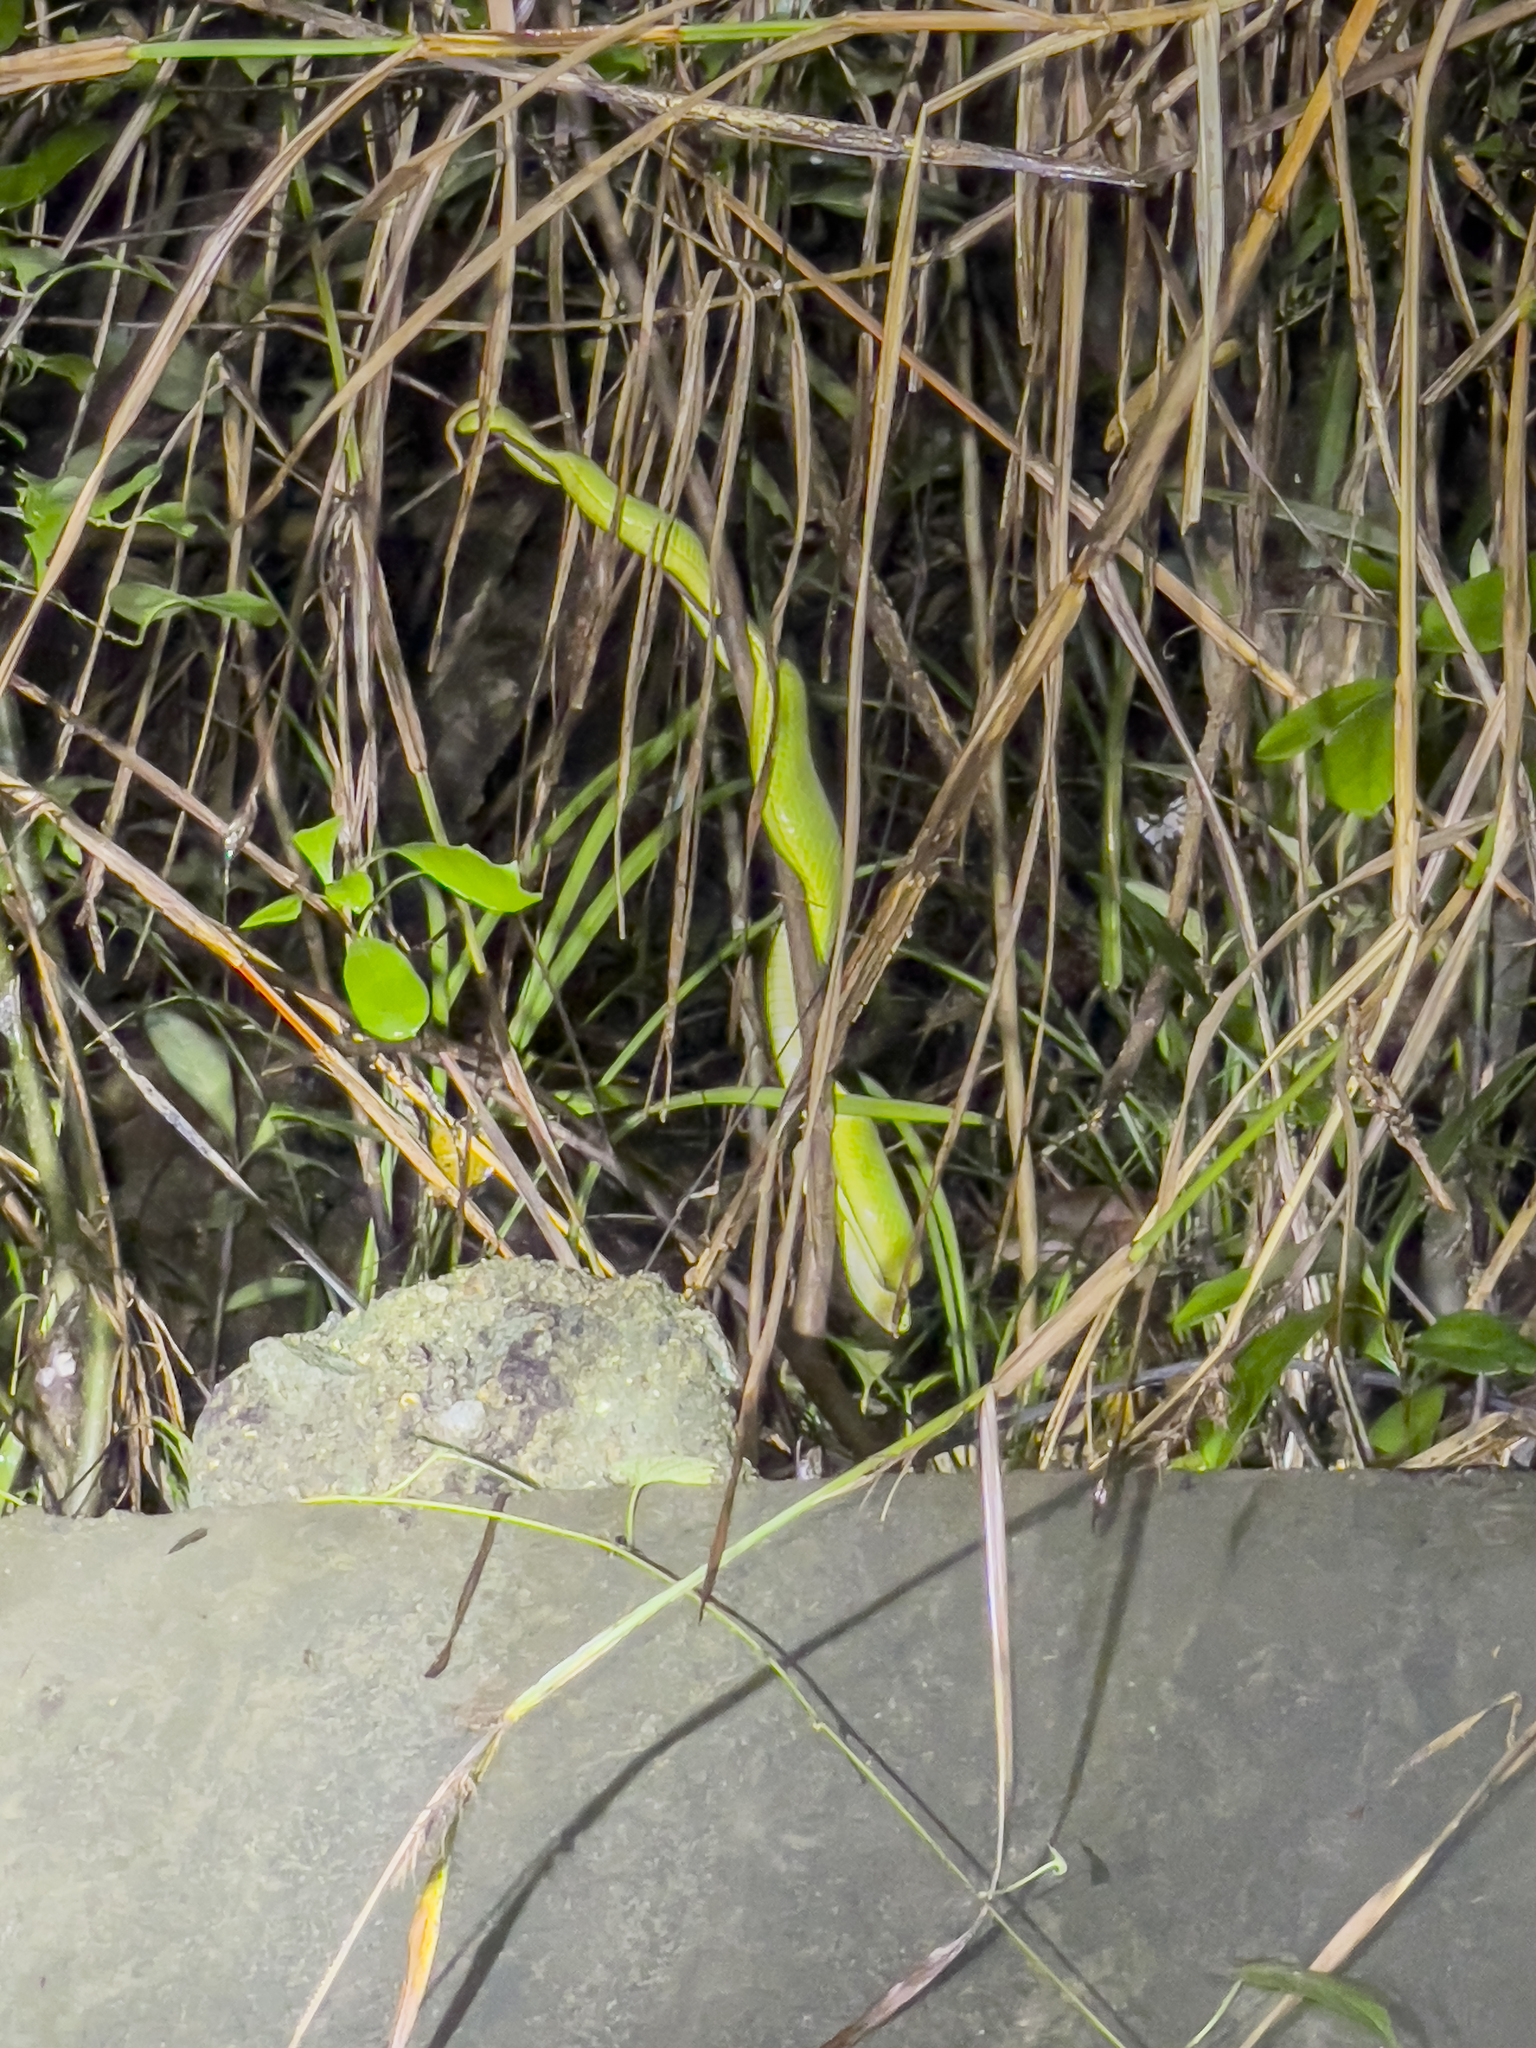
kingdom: Animalia
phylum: Chordata
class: Squamata
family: Viperidae
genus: Trimeresurus
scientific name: Trimeresurus albolabris
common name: White-lipped pitviper
